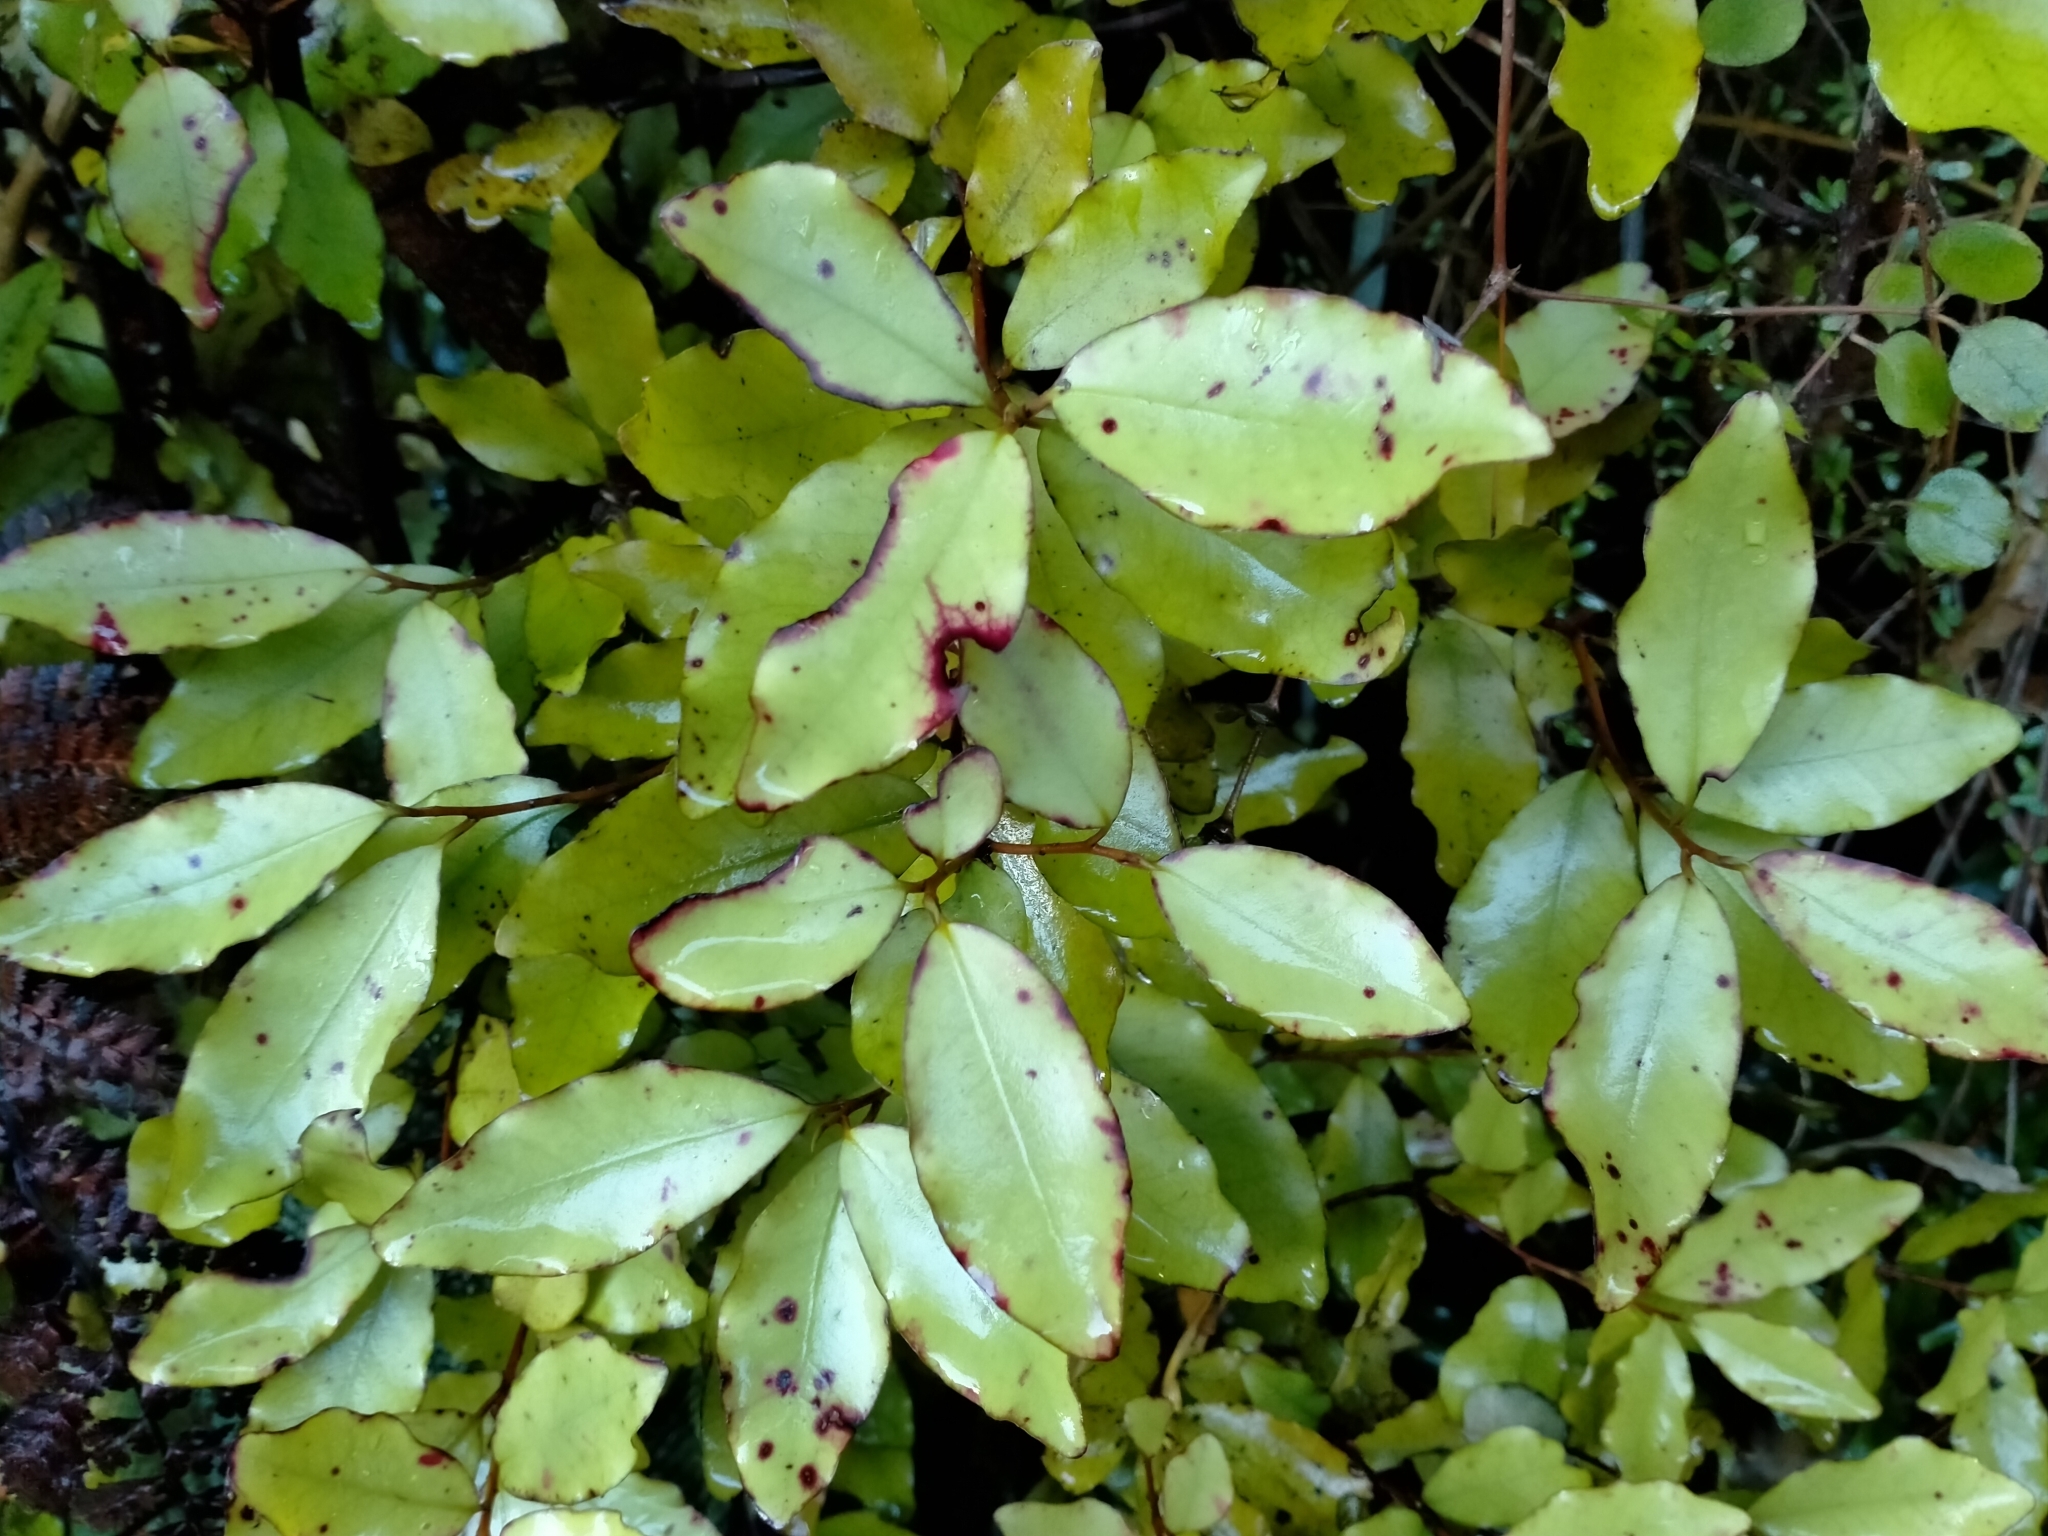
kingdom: Plantae
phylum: Tracheophyta
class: Magnoliopsida
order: Canellales
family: Winteraceae
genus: Pseudowintera
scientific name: Pseudowintera colorata
